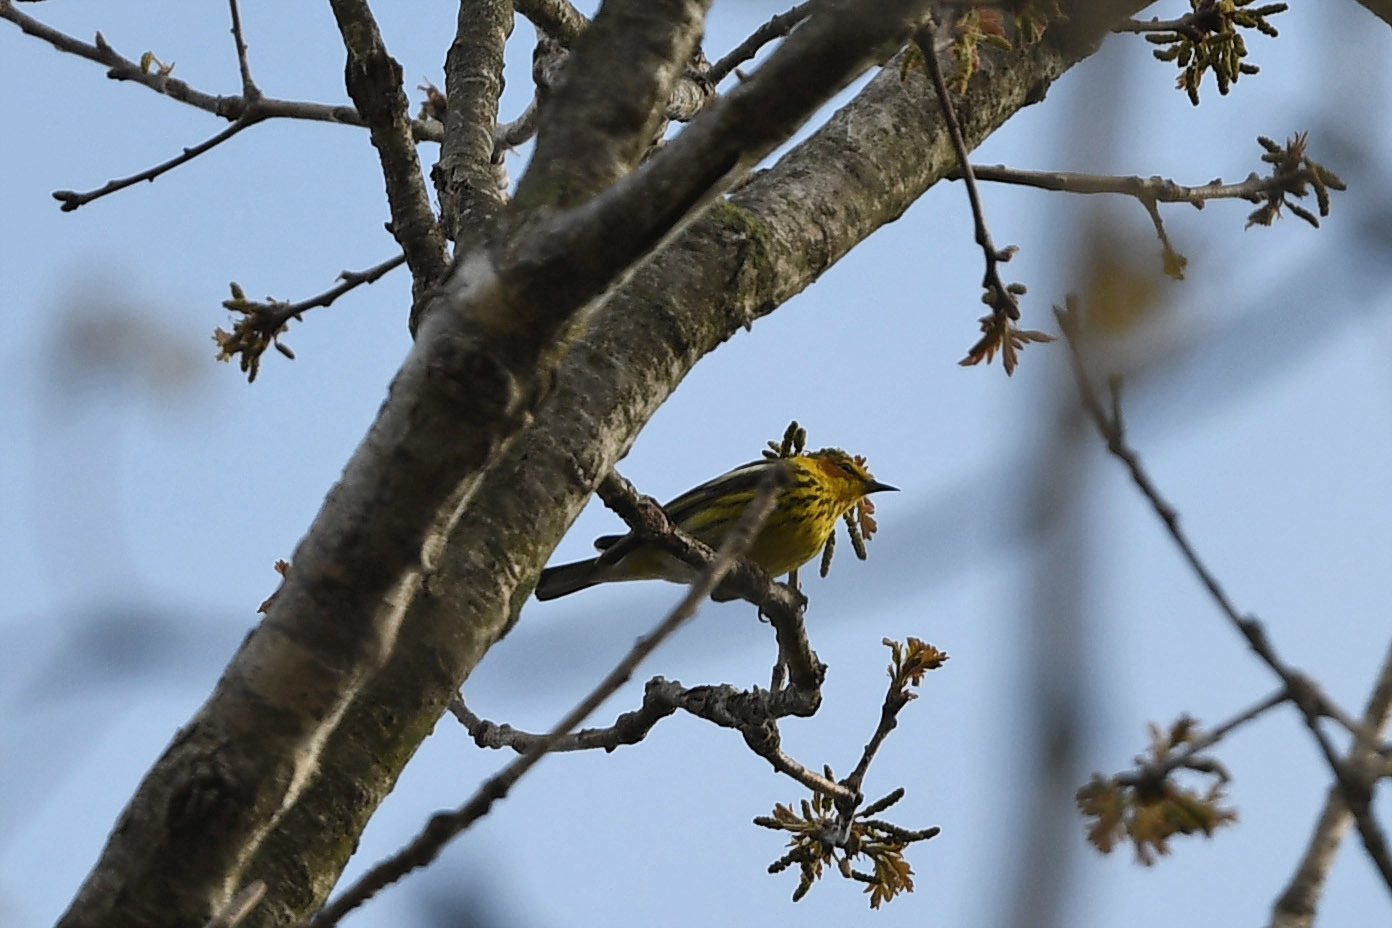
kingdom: Animalia
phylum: Chordata
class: Aves
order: Passeriformes
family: Parulidae
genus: Setophaga
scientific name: Setophaga tigrina
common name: Cape may warbler
